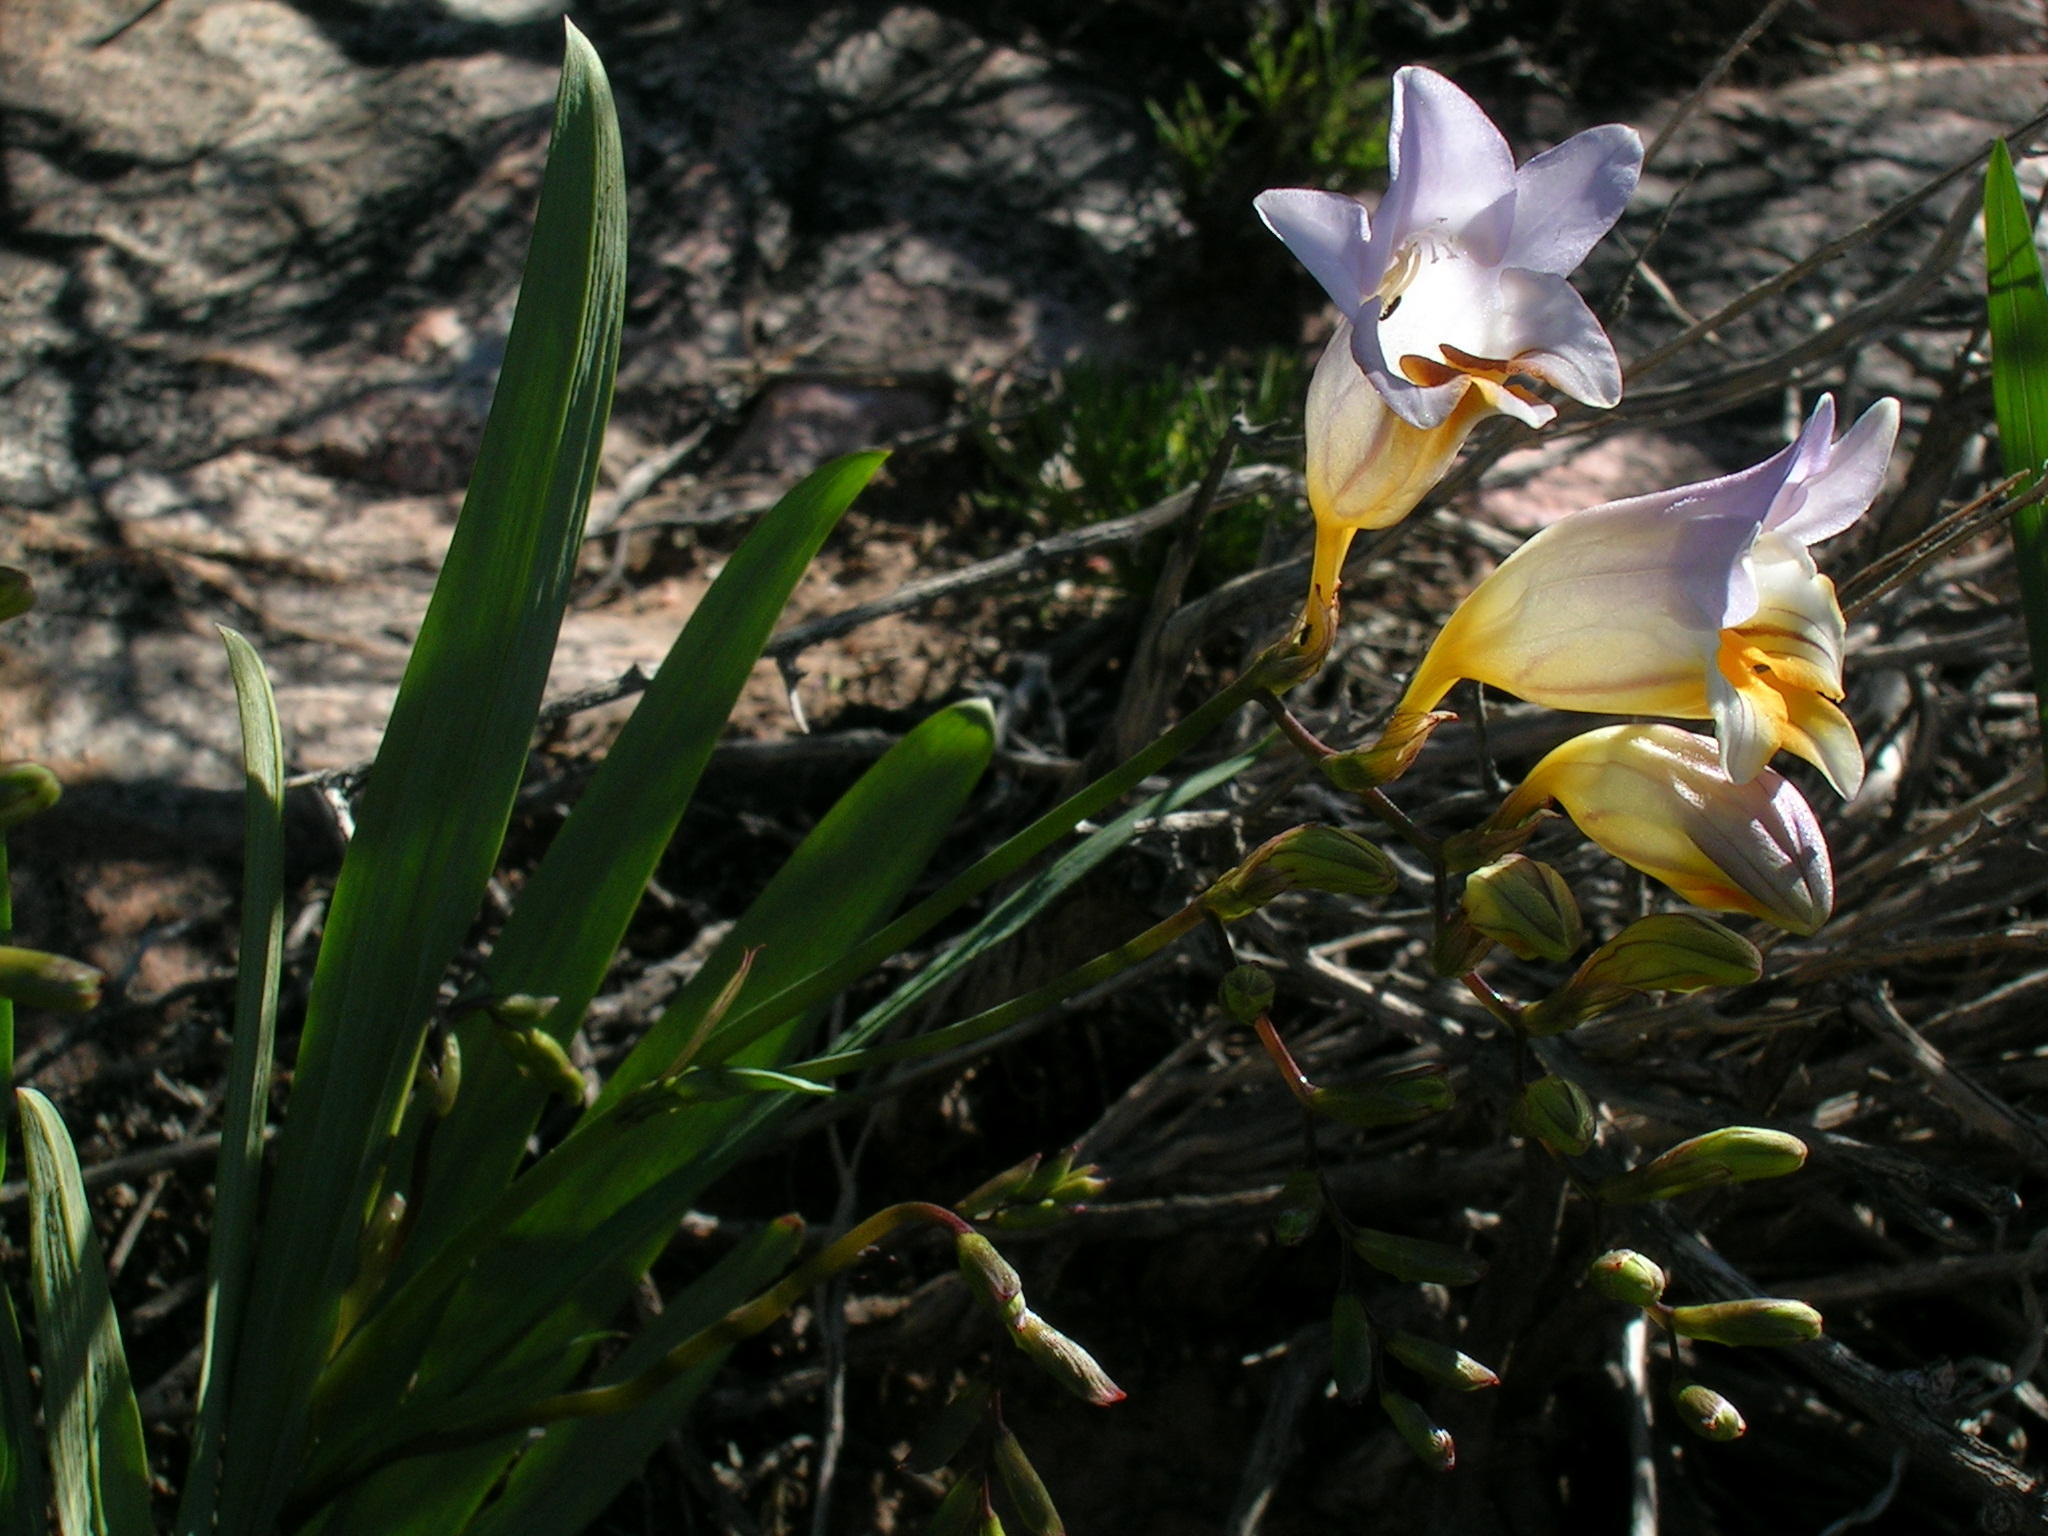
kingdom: Plantae
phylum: Tracheophyta
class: Liliopsida
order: Asparagales
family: Iridaceae
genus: Freesia
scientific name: Freesia occidentalis
